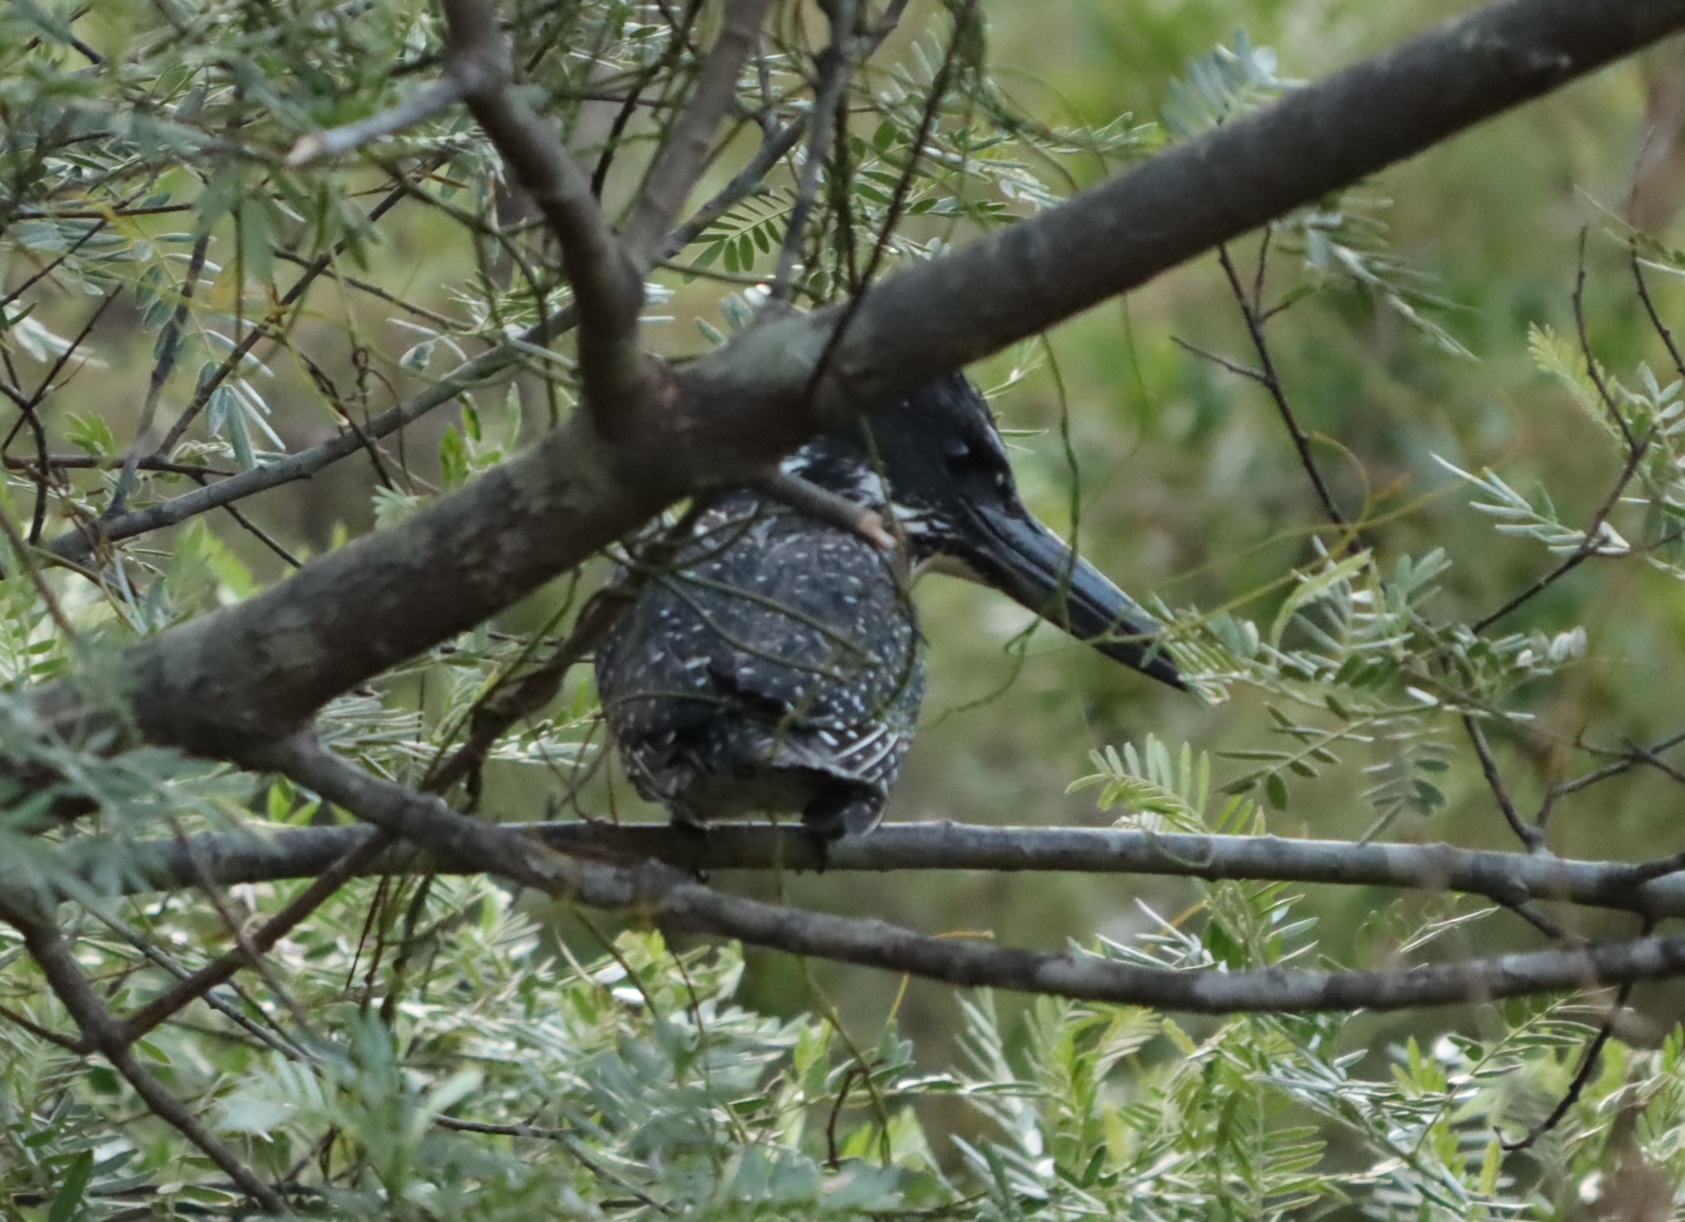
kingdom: Animalia
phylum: Chordata
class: Aves
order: Coraciiformes
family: Alcedinidae
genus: Megaceryle
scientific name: Megaceryle maxima
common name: Giant kingfisher
